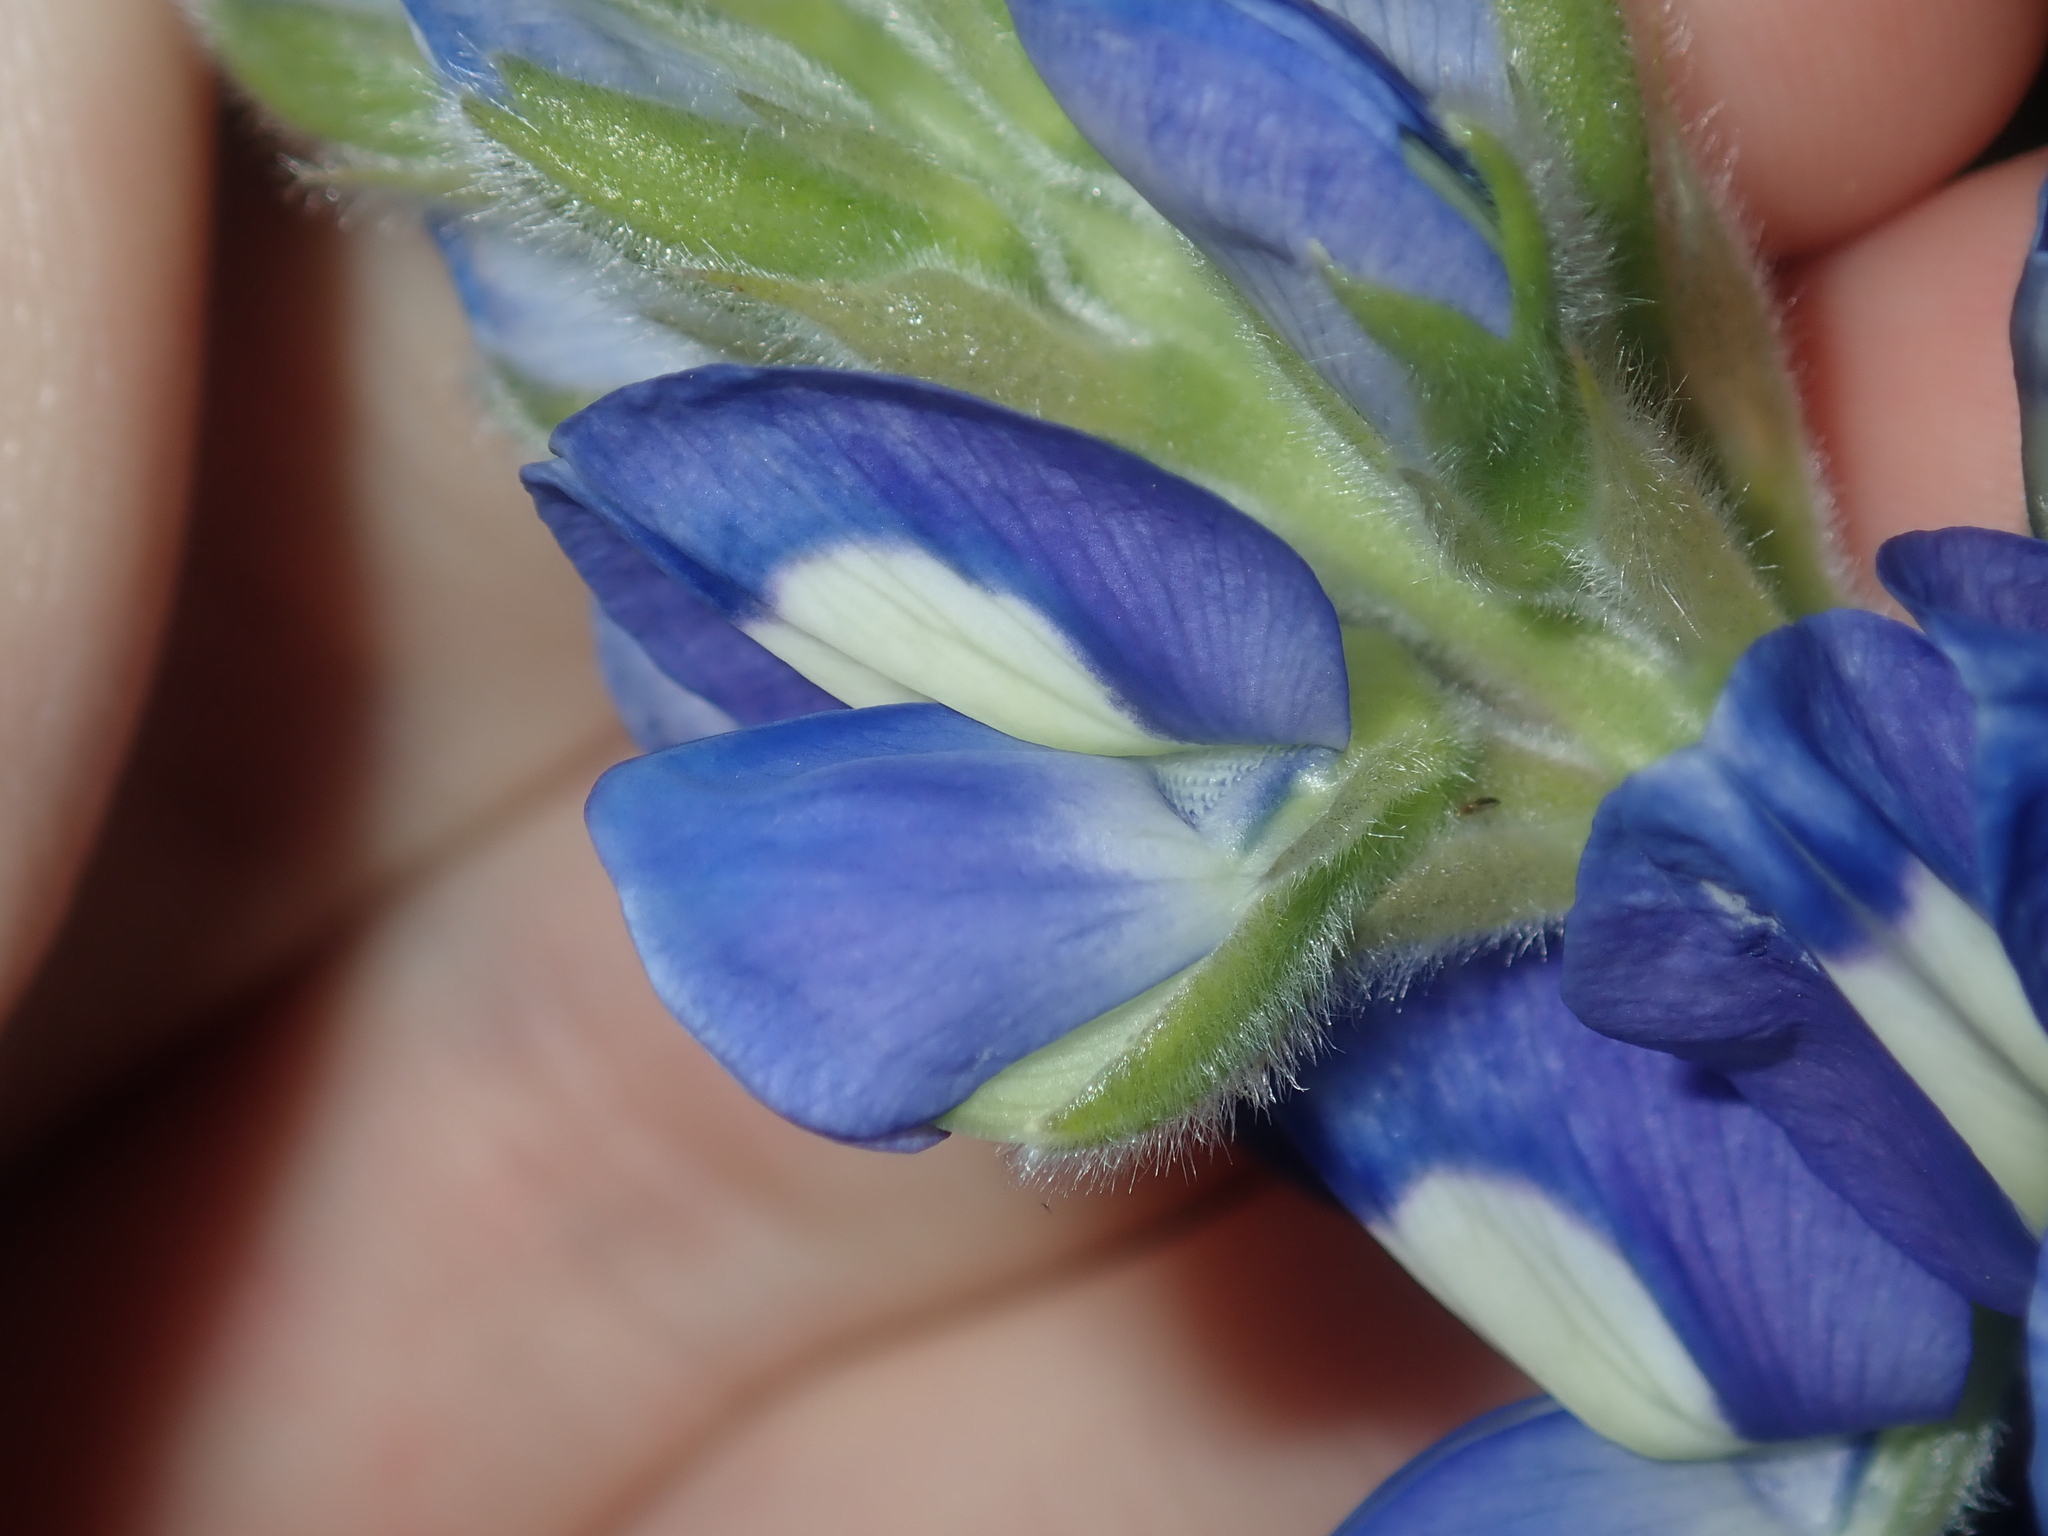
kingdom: Plantae
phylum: Tracheophyta
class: Magnoliopsida
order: Fabales
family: Fabaceae
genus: Lupinus
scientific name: Lupinus cosentinii
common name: Hairy blue lupin
